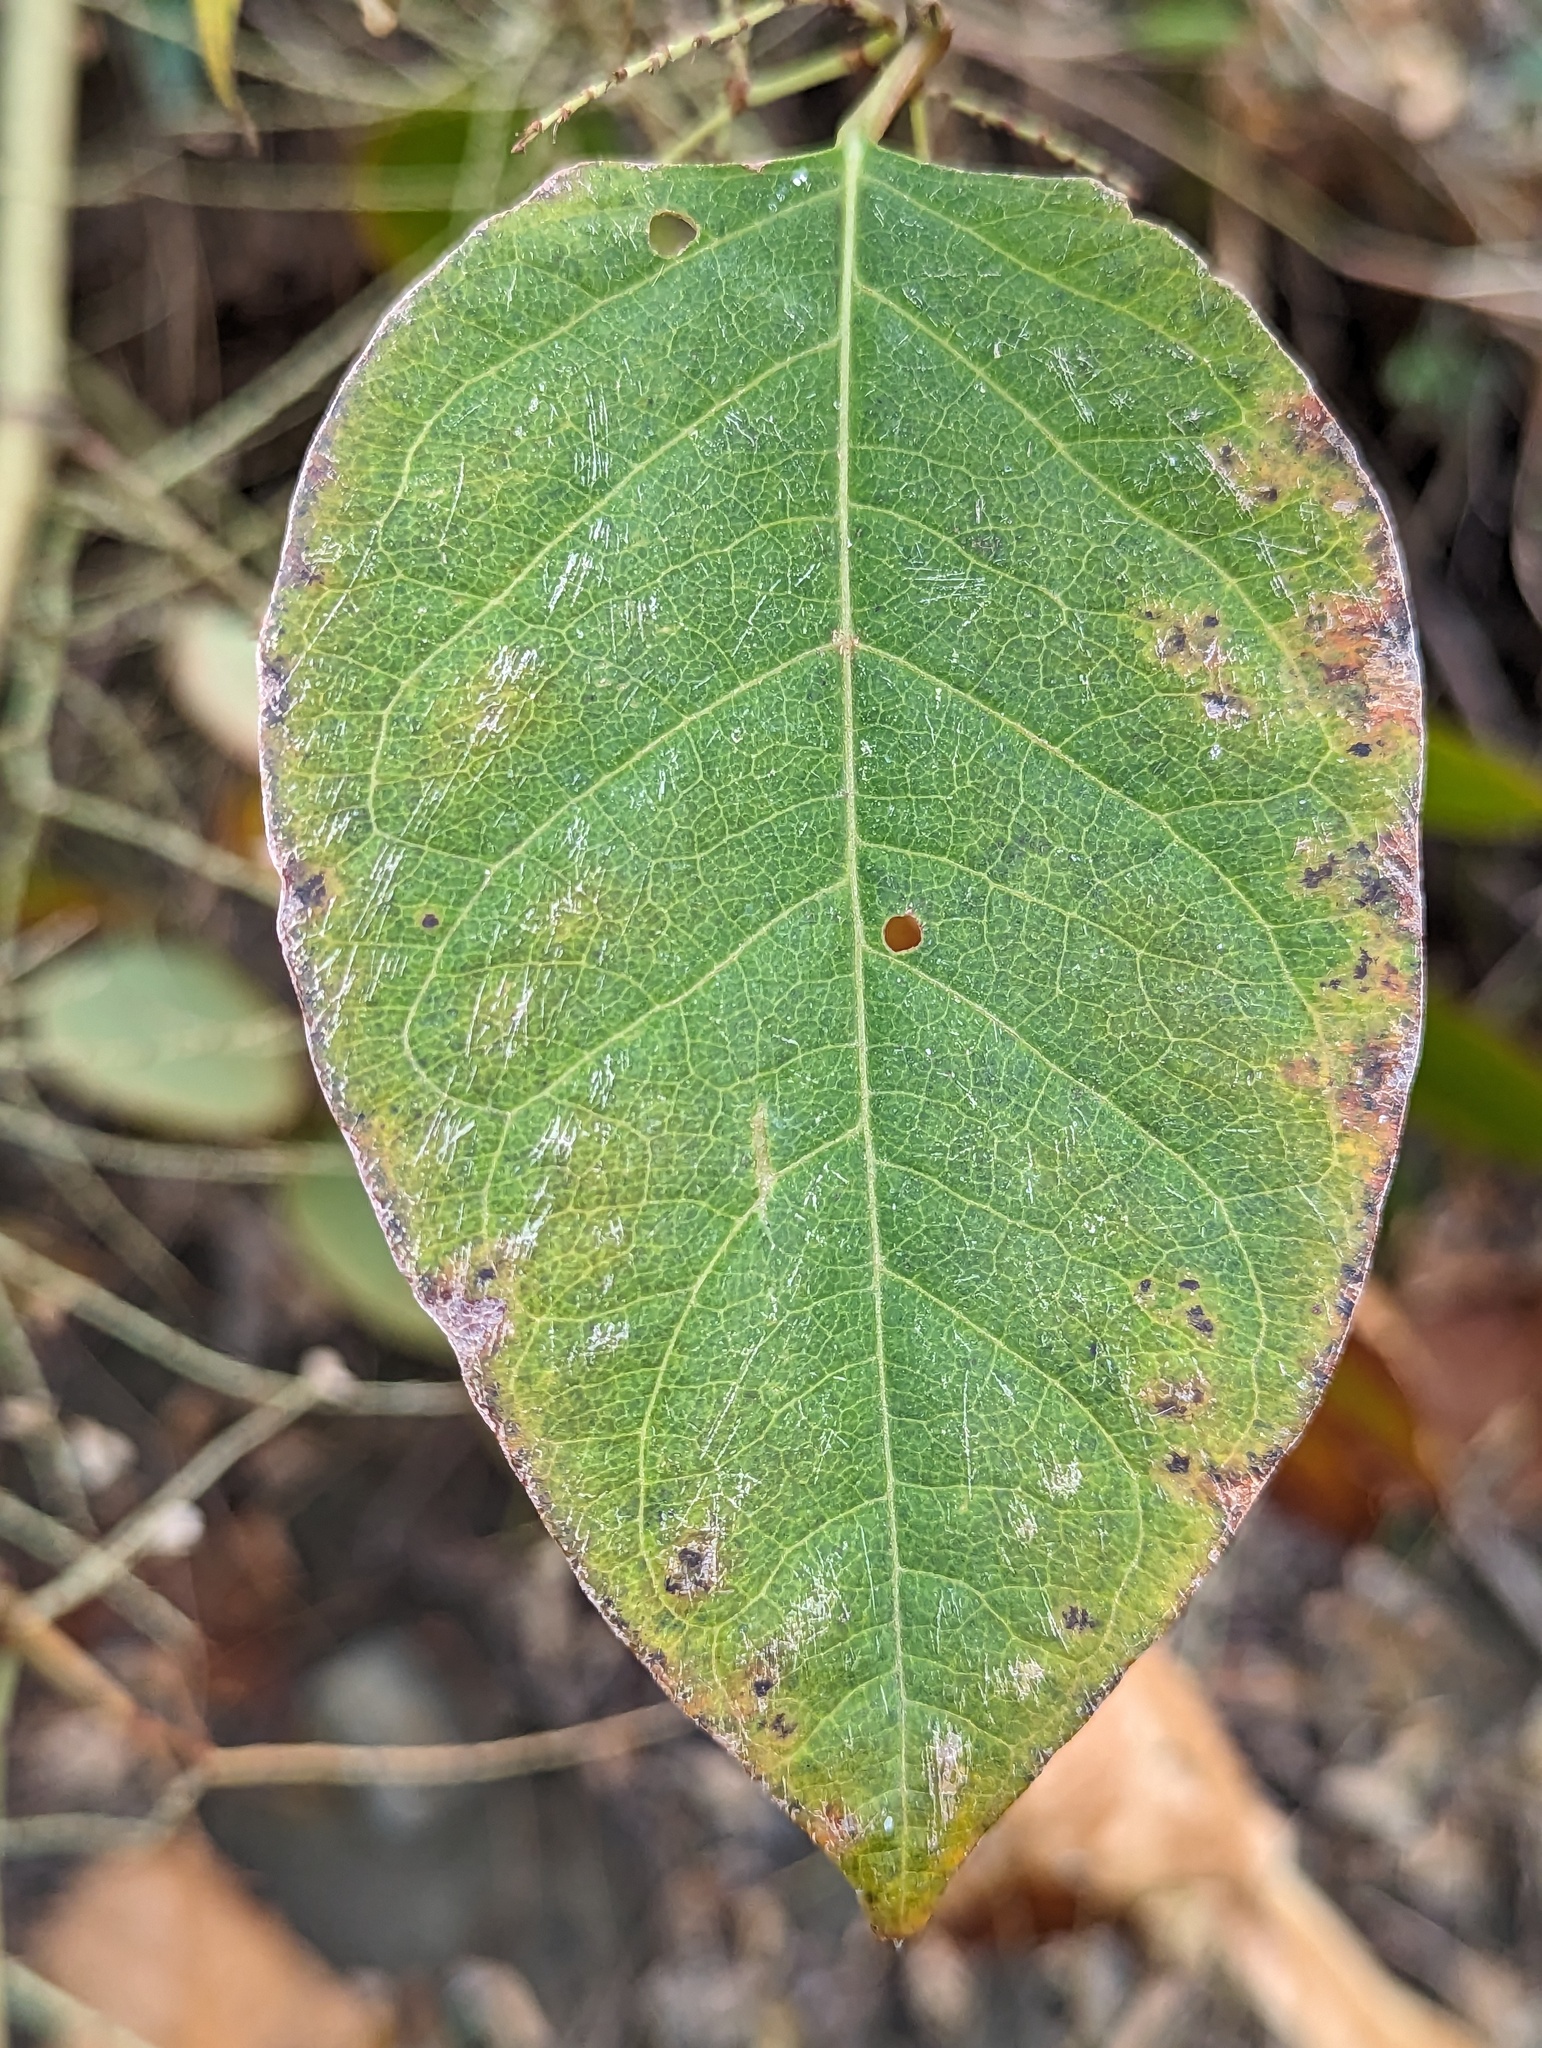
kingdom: Plantae
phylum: Tracheophyta
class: Magnoliopsida
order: Caryophyllales
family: Polygonaceae
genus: Reynoutria
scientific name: Reynoutria japonica
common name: Japanese knotweed
